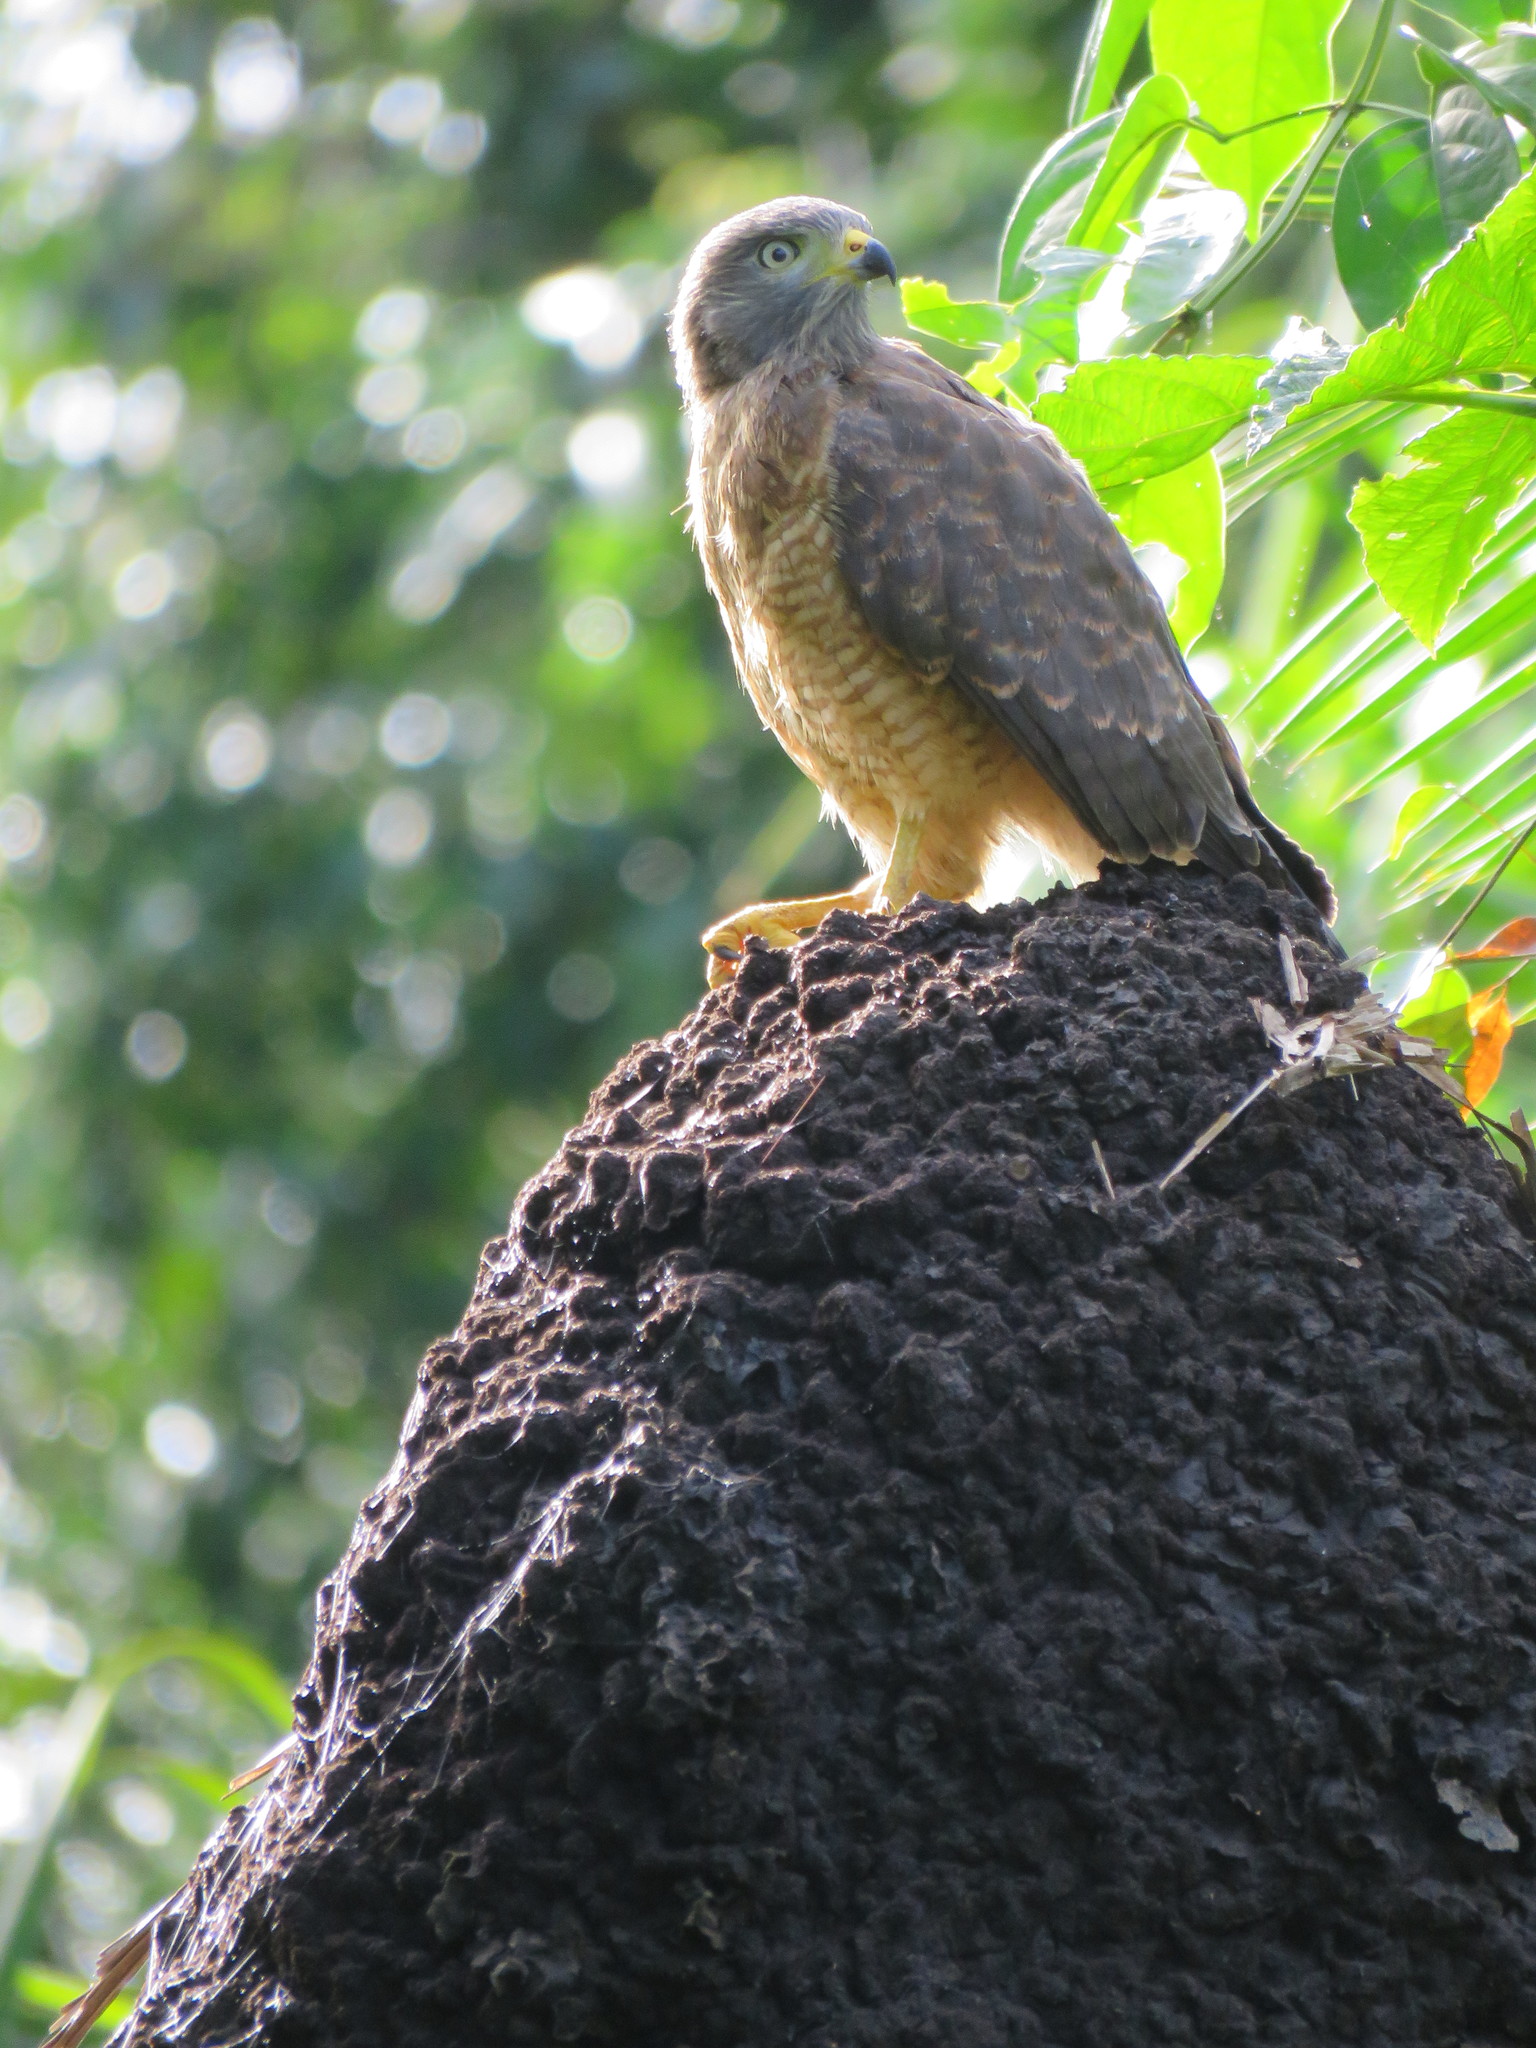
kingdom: Animalia
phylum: Chordata
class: Aves
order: Accipitriformes
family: Accipitridae
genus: Rupornis
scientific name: Rupornis magnirostris
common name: Roadside hawk
